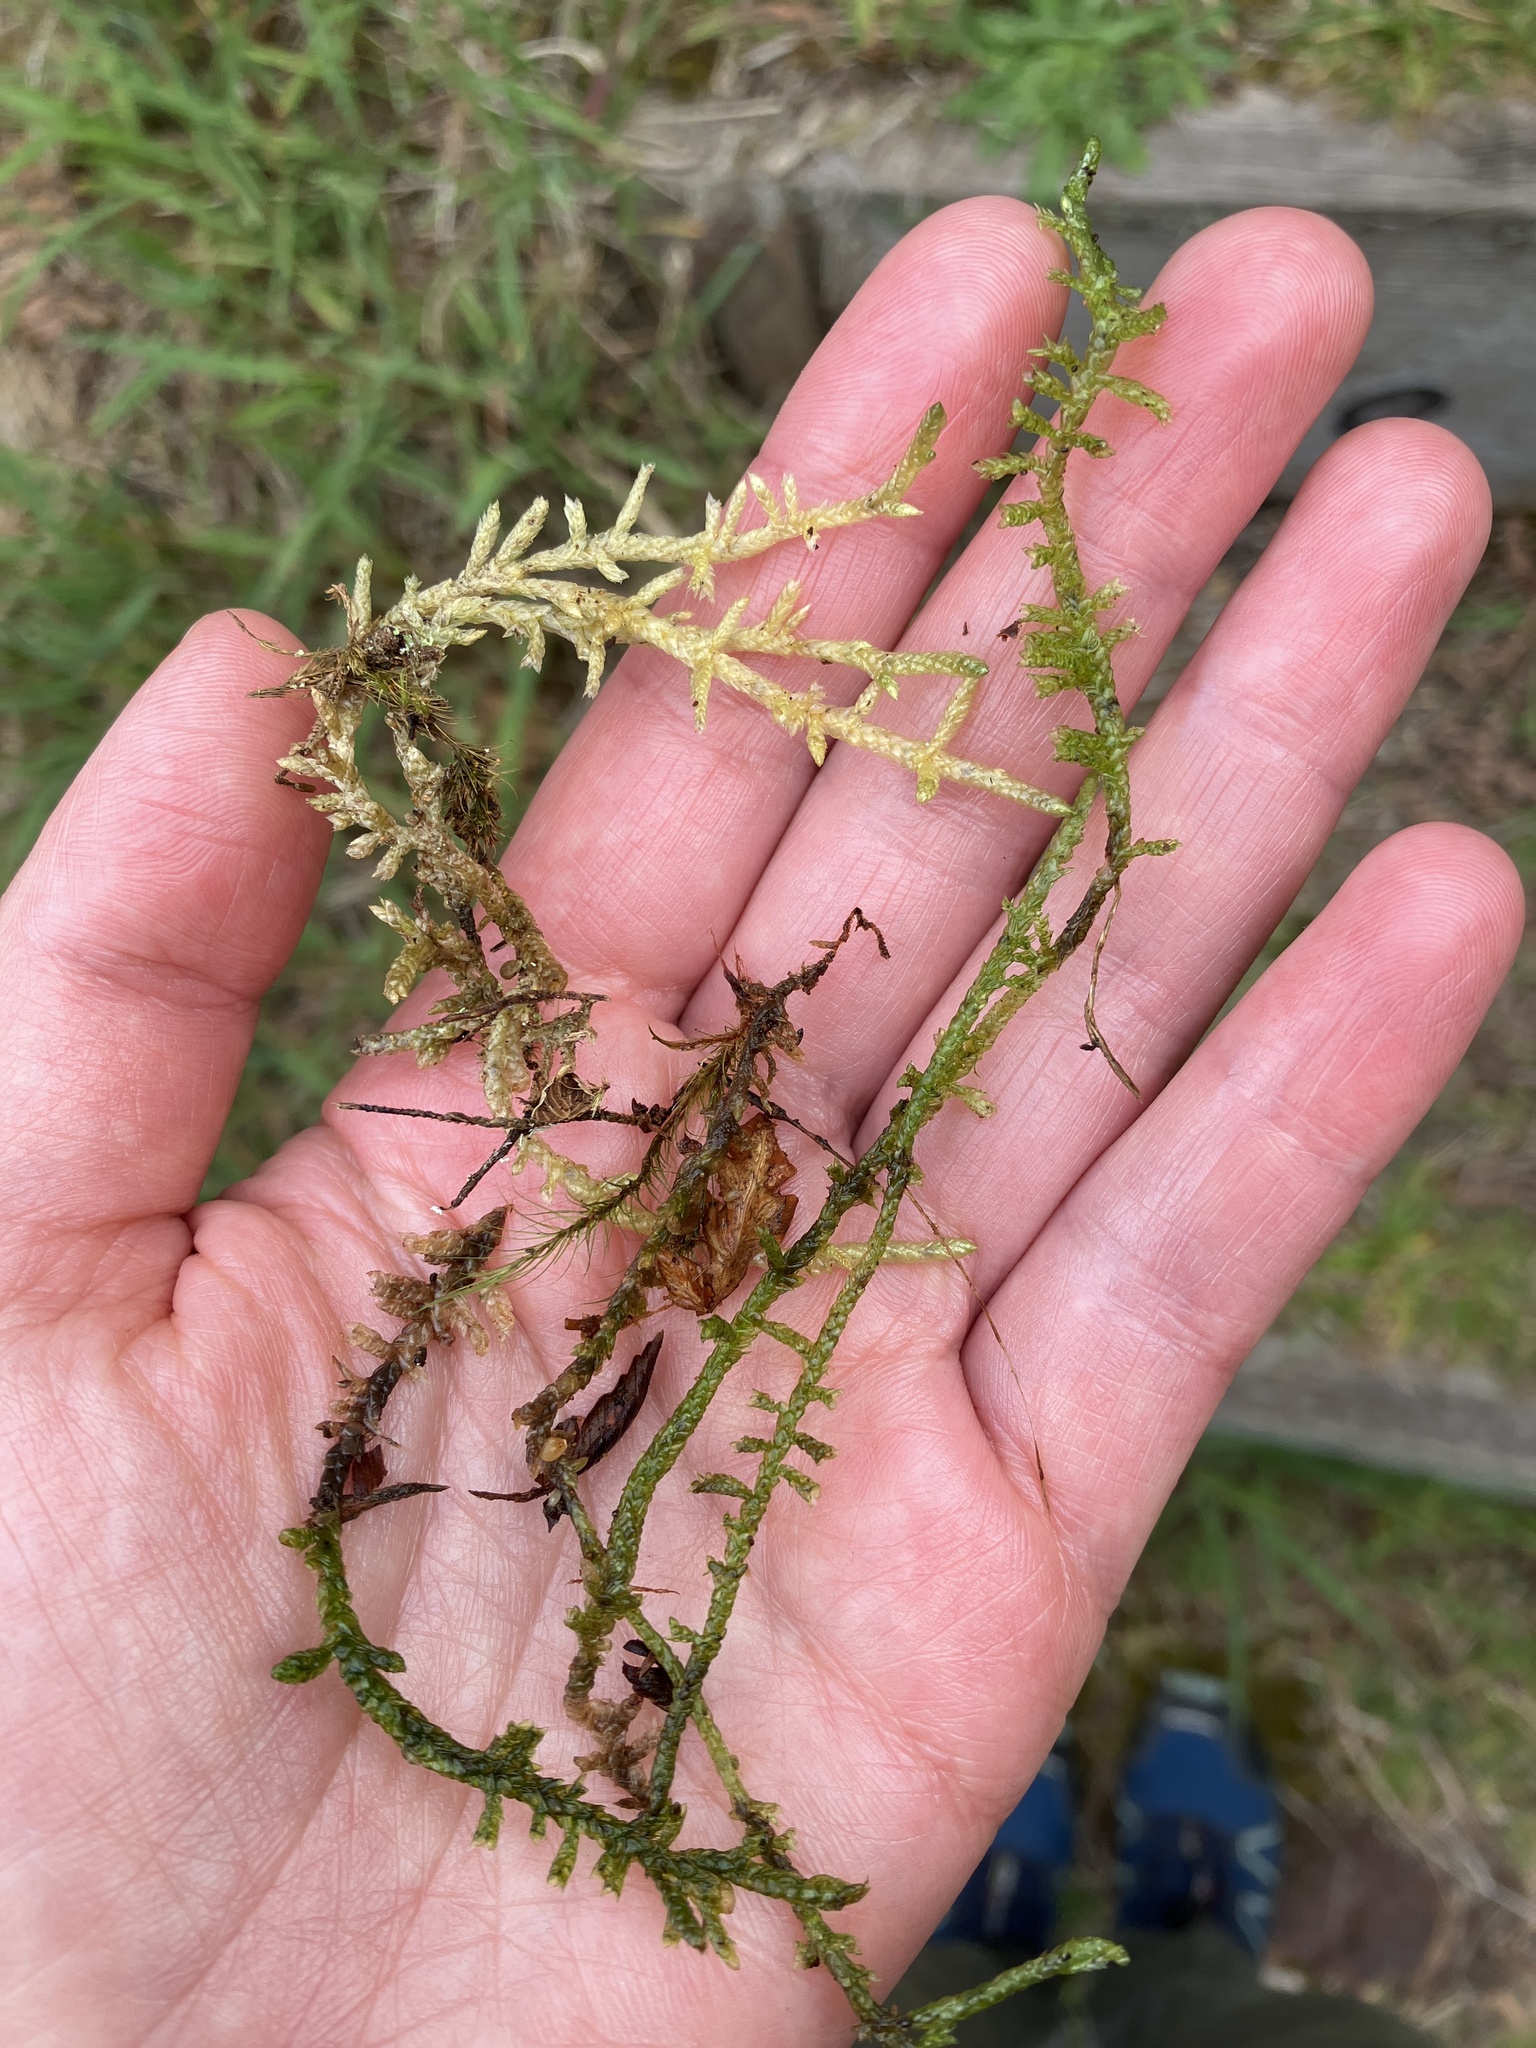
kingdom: Plantae
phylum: Bryophyta
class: Bryopsida
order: Hypnales
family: Brachytheciaceae
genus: Pseudoscleropodium
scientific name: Pseudoscleropodium purum
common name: Neat feather-moss
